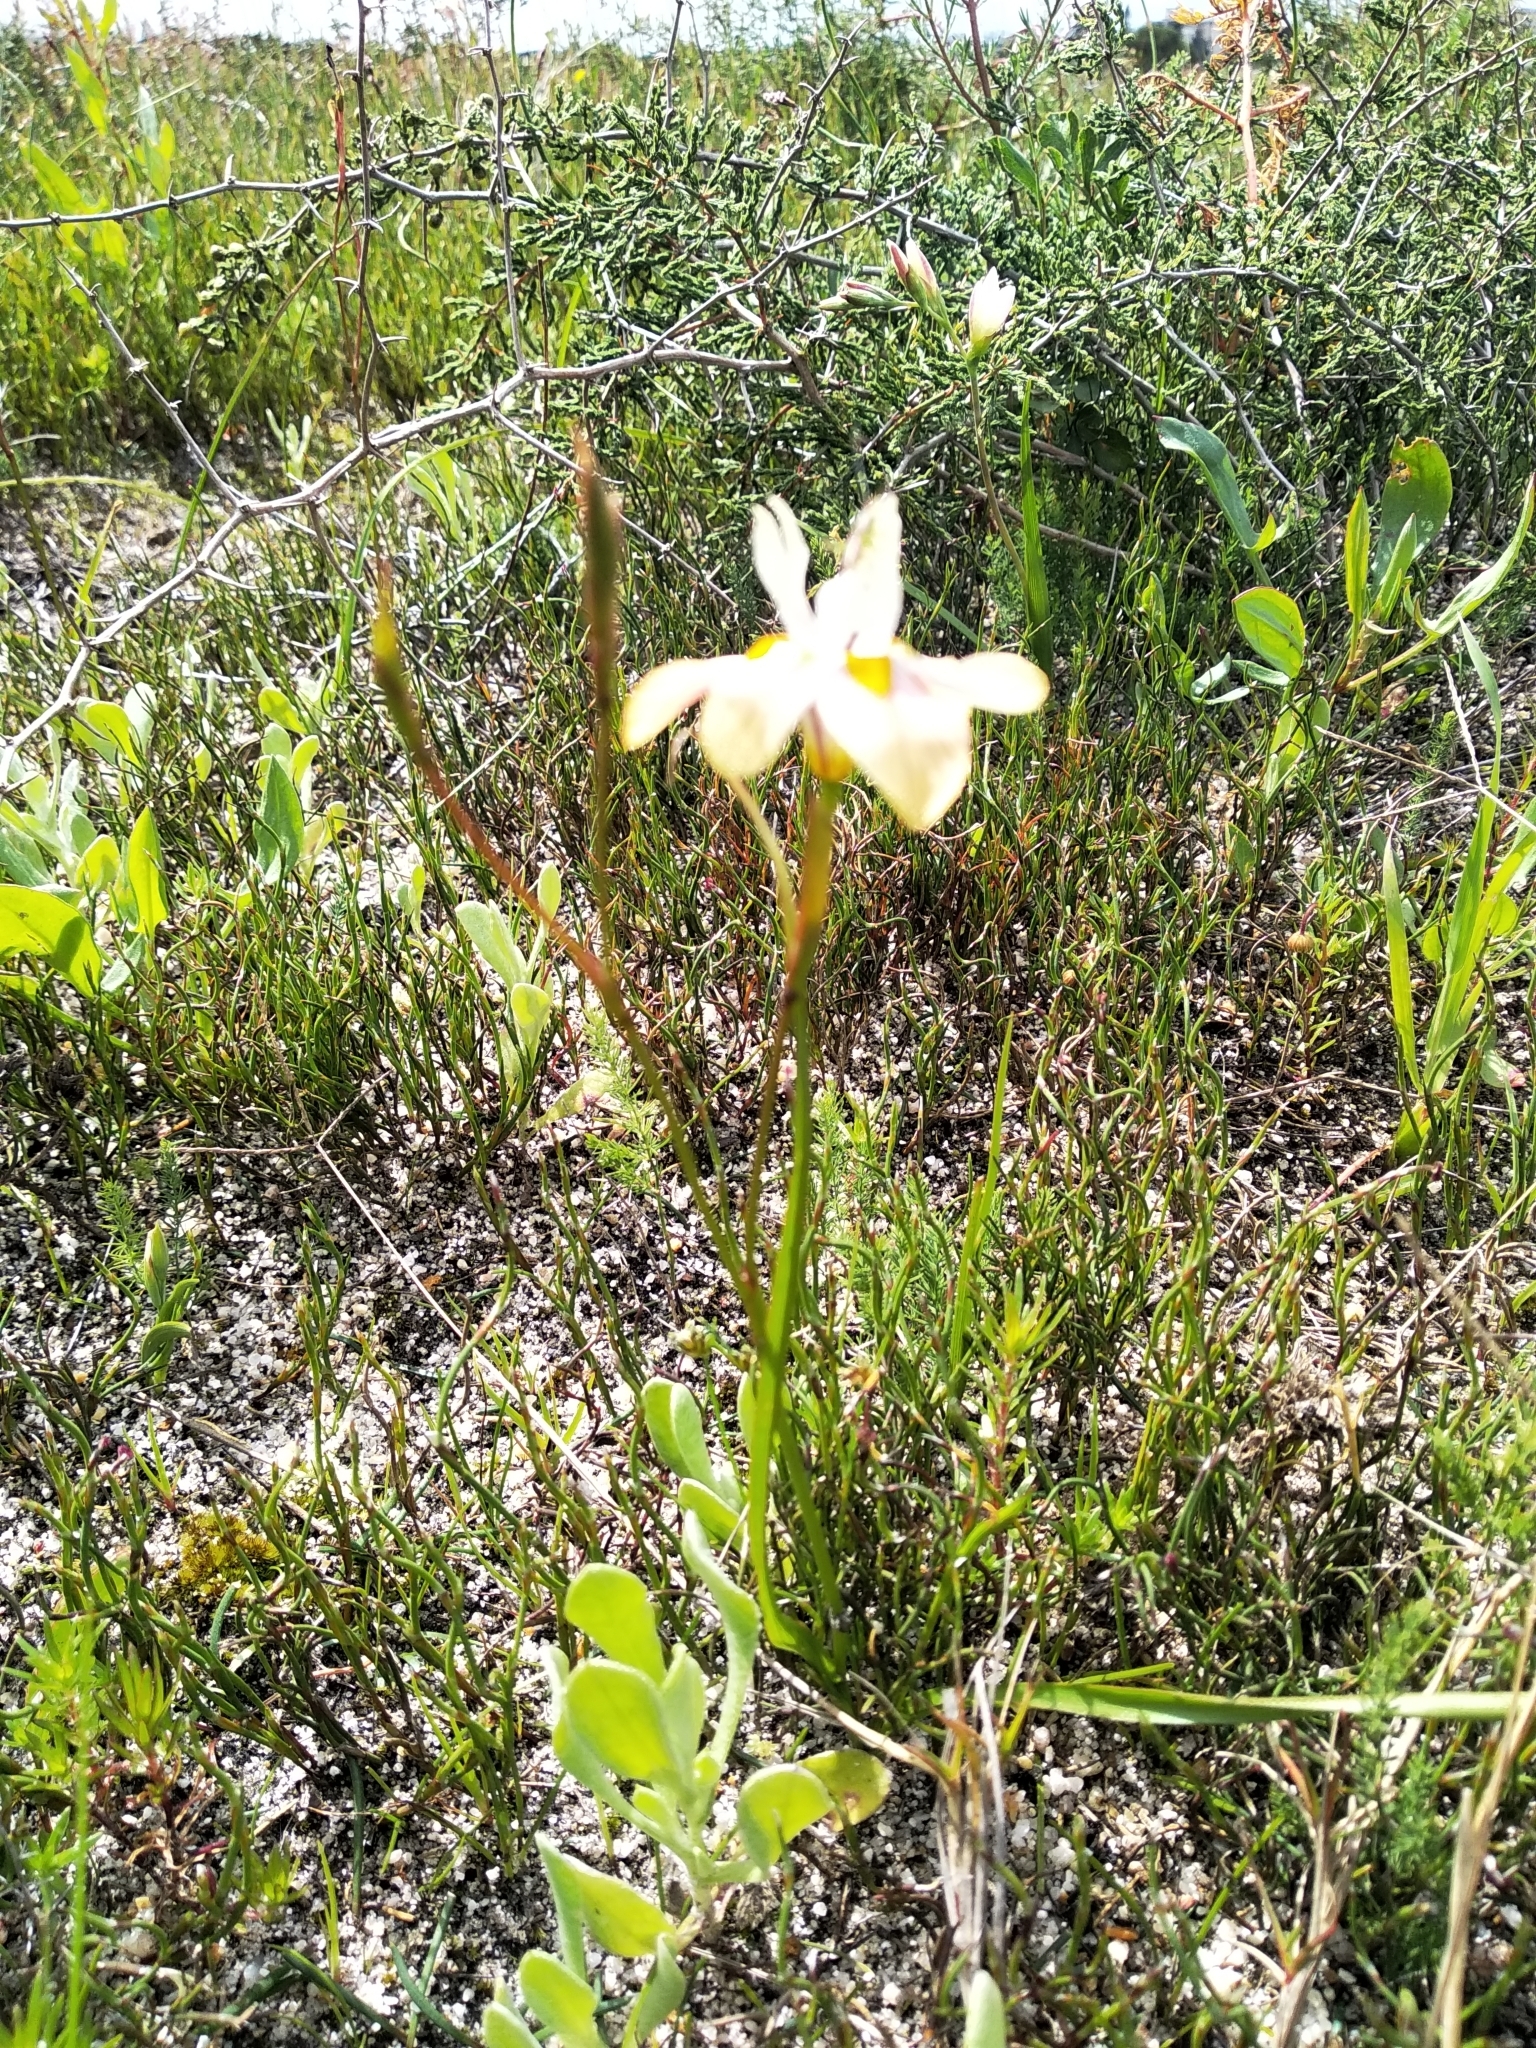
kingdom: Plantae
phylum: Tracheophyta
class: Liliopsida
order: Asparagales
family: Iridaceae
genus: Moraea
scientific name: Moraea gawleri
